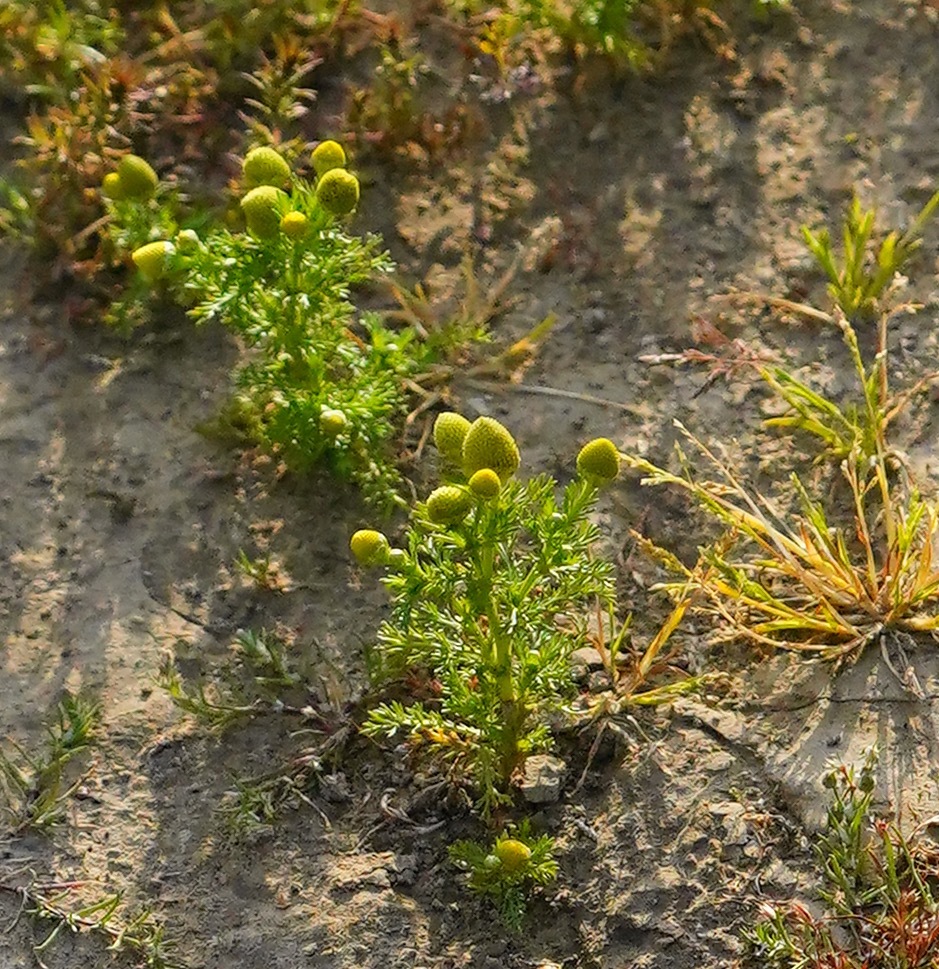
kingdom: Plantae
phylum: Tracheophyta
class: Magnoliopsida
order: Asterales
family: Asteraceae
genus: Matricaria
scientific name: Matricaria discoidea
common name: Disc mayweed
